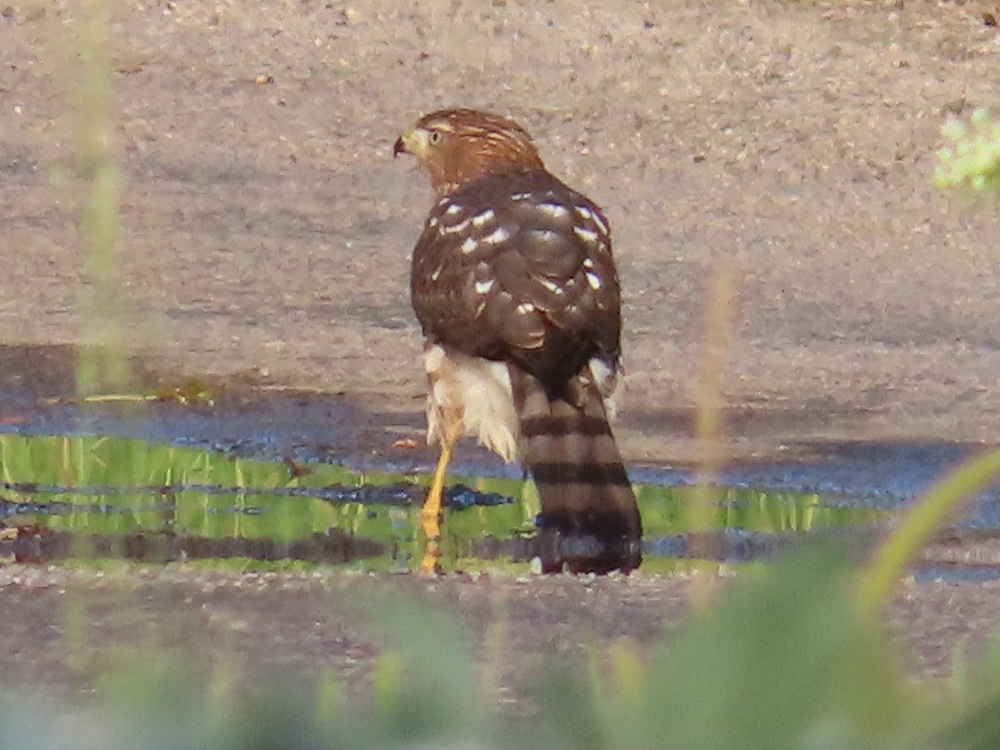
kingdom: Animalia
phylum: Chordata
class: Aves
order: Accipitriformes
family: Accipitridae
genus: Accipiter
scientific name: Accipiter cooperii
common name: Cooper's hawk
